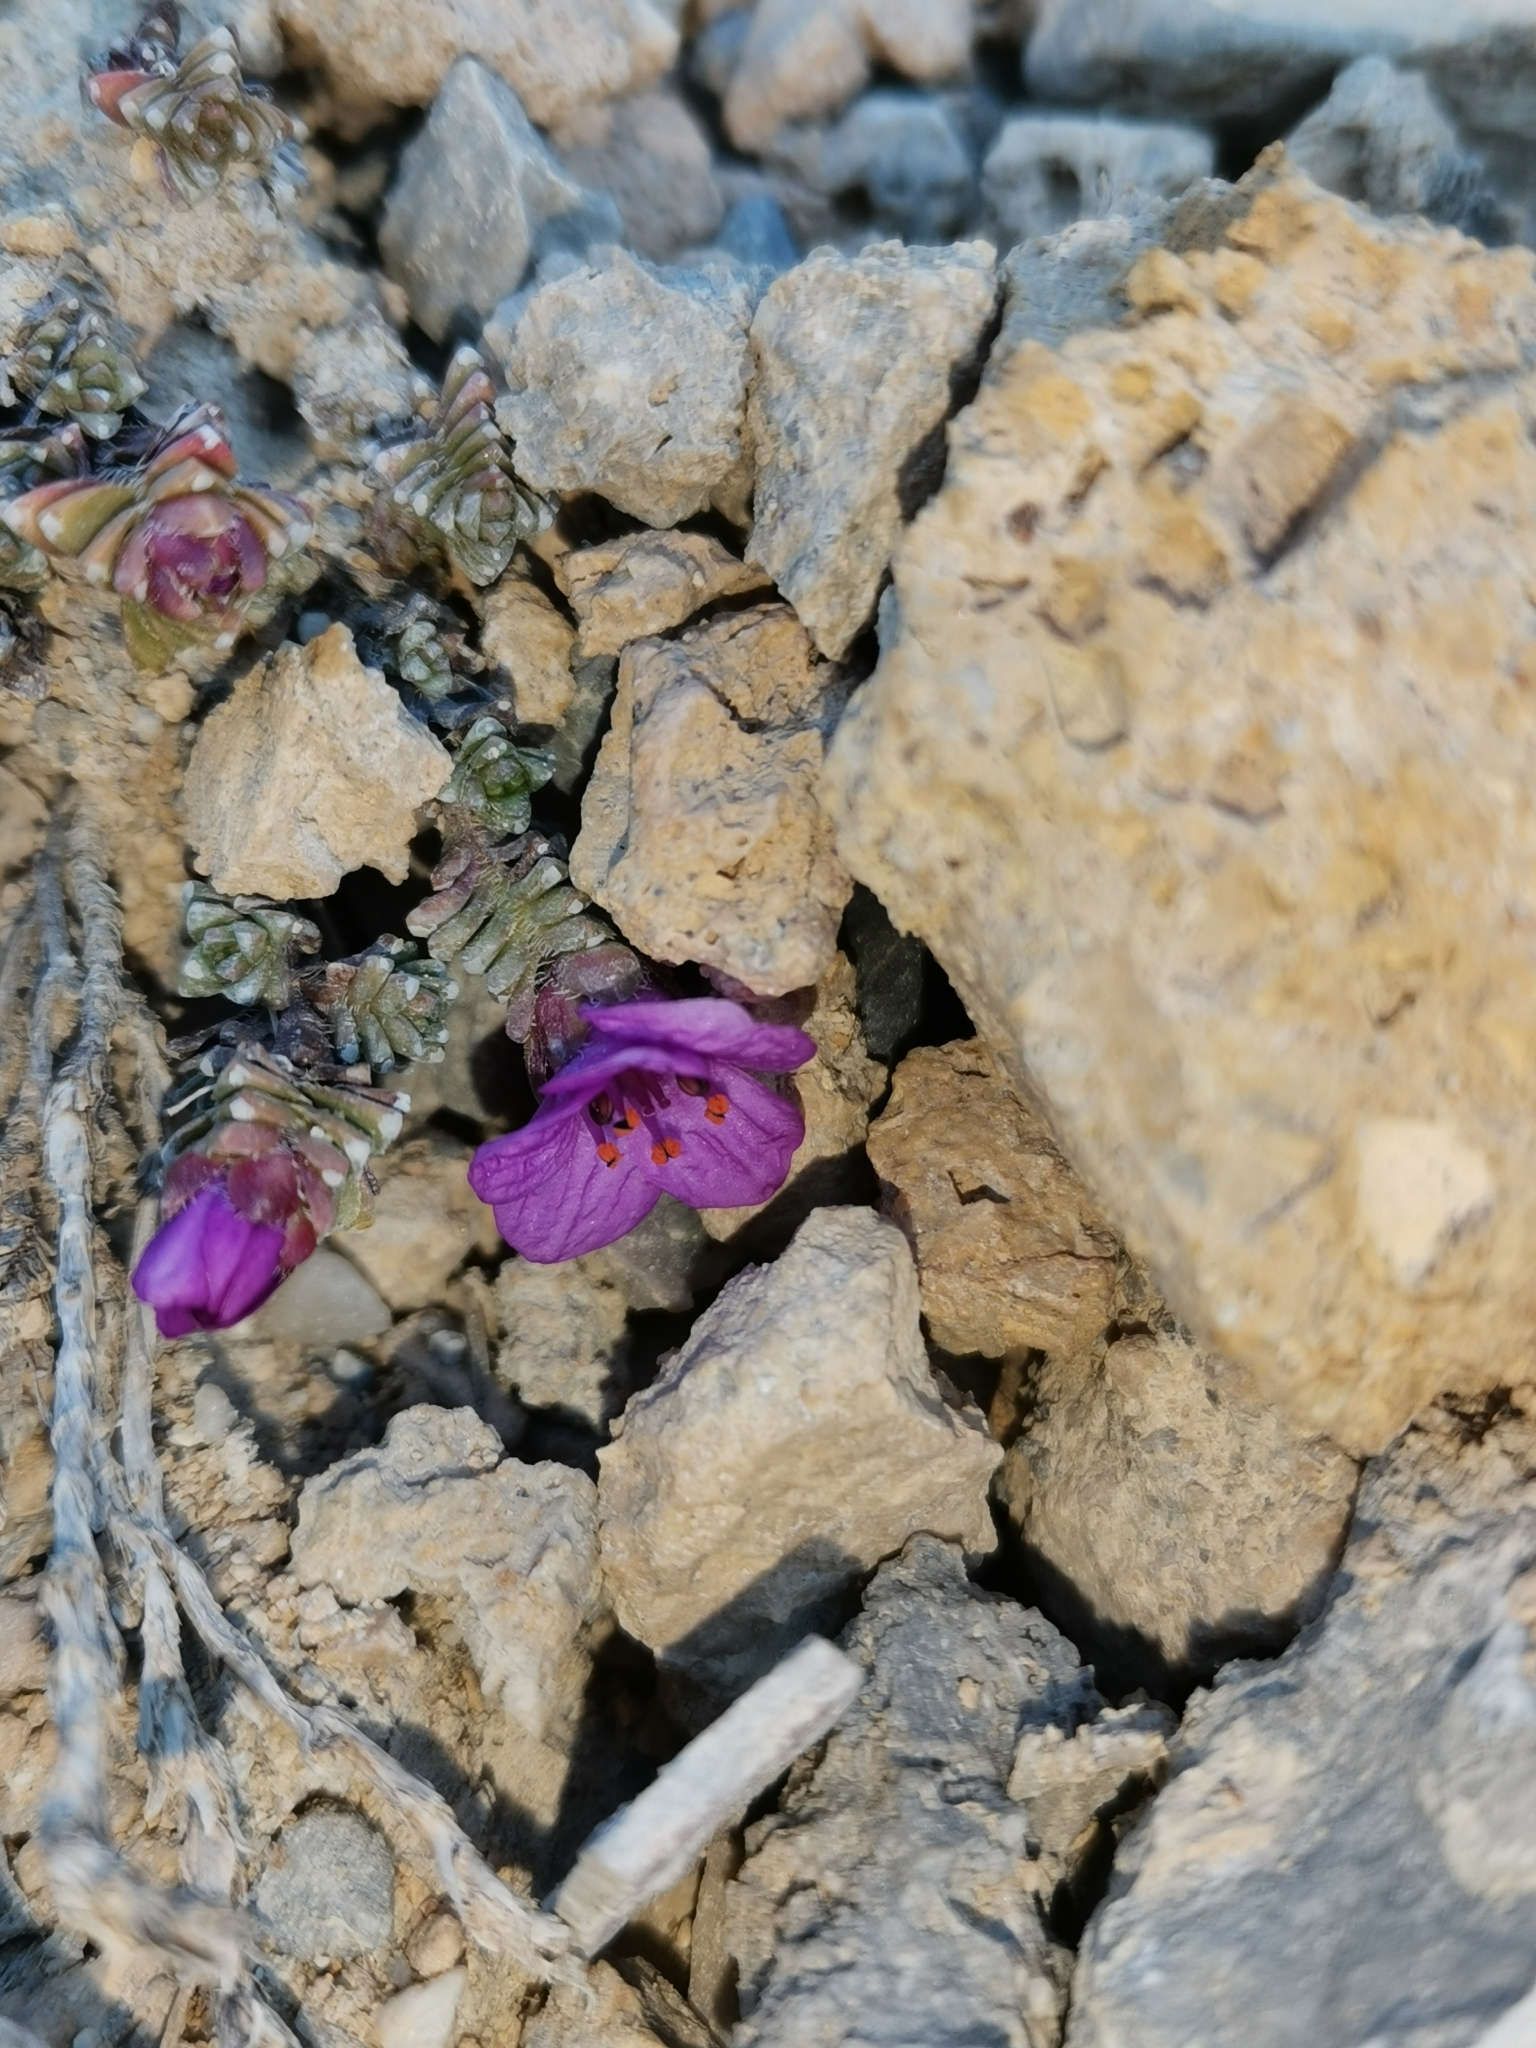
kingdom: Plantae
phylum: Tracheophyta
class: Magnoliopsida
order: Saxifragales
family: Saxifragaceae
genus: Saxifraga
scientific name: Saxifraga oppositifolia
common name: Purple saxifrage
